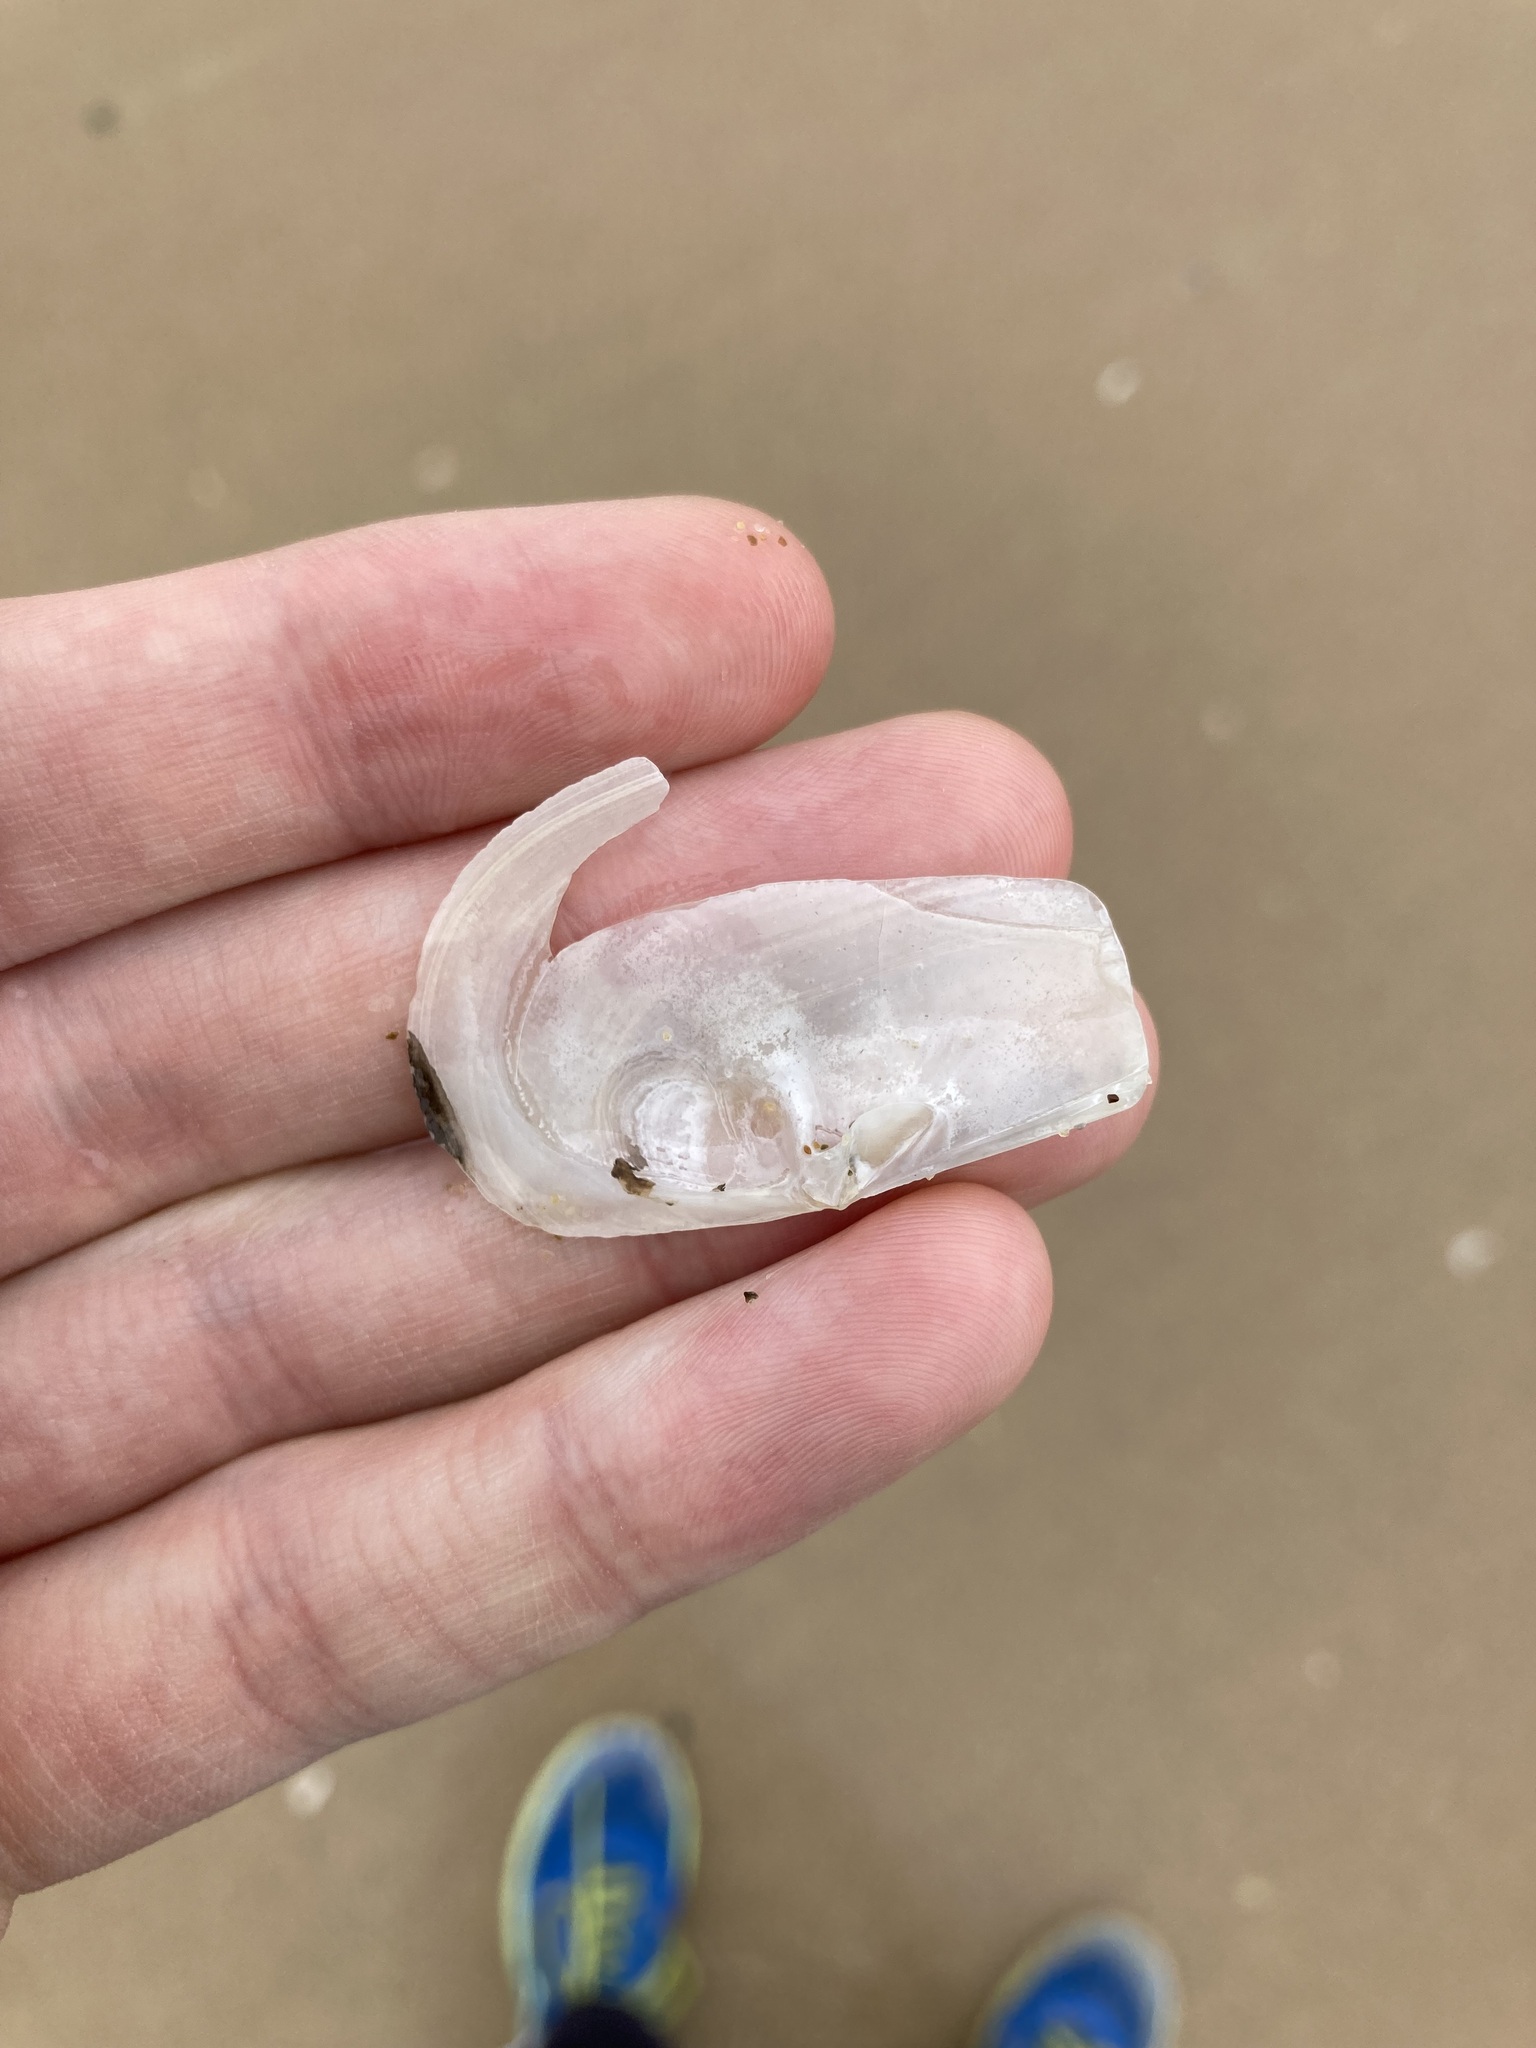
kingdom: Animalia
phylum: Mollusca
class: Bivalvia
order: Venerida
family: Mactridae
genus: Zenatina
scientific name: Zenatina victoriae
